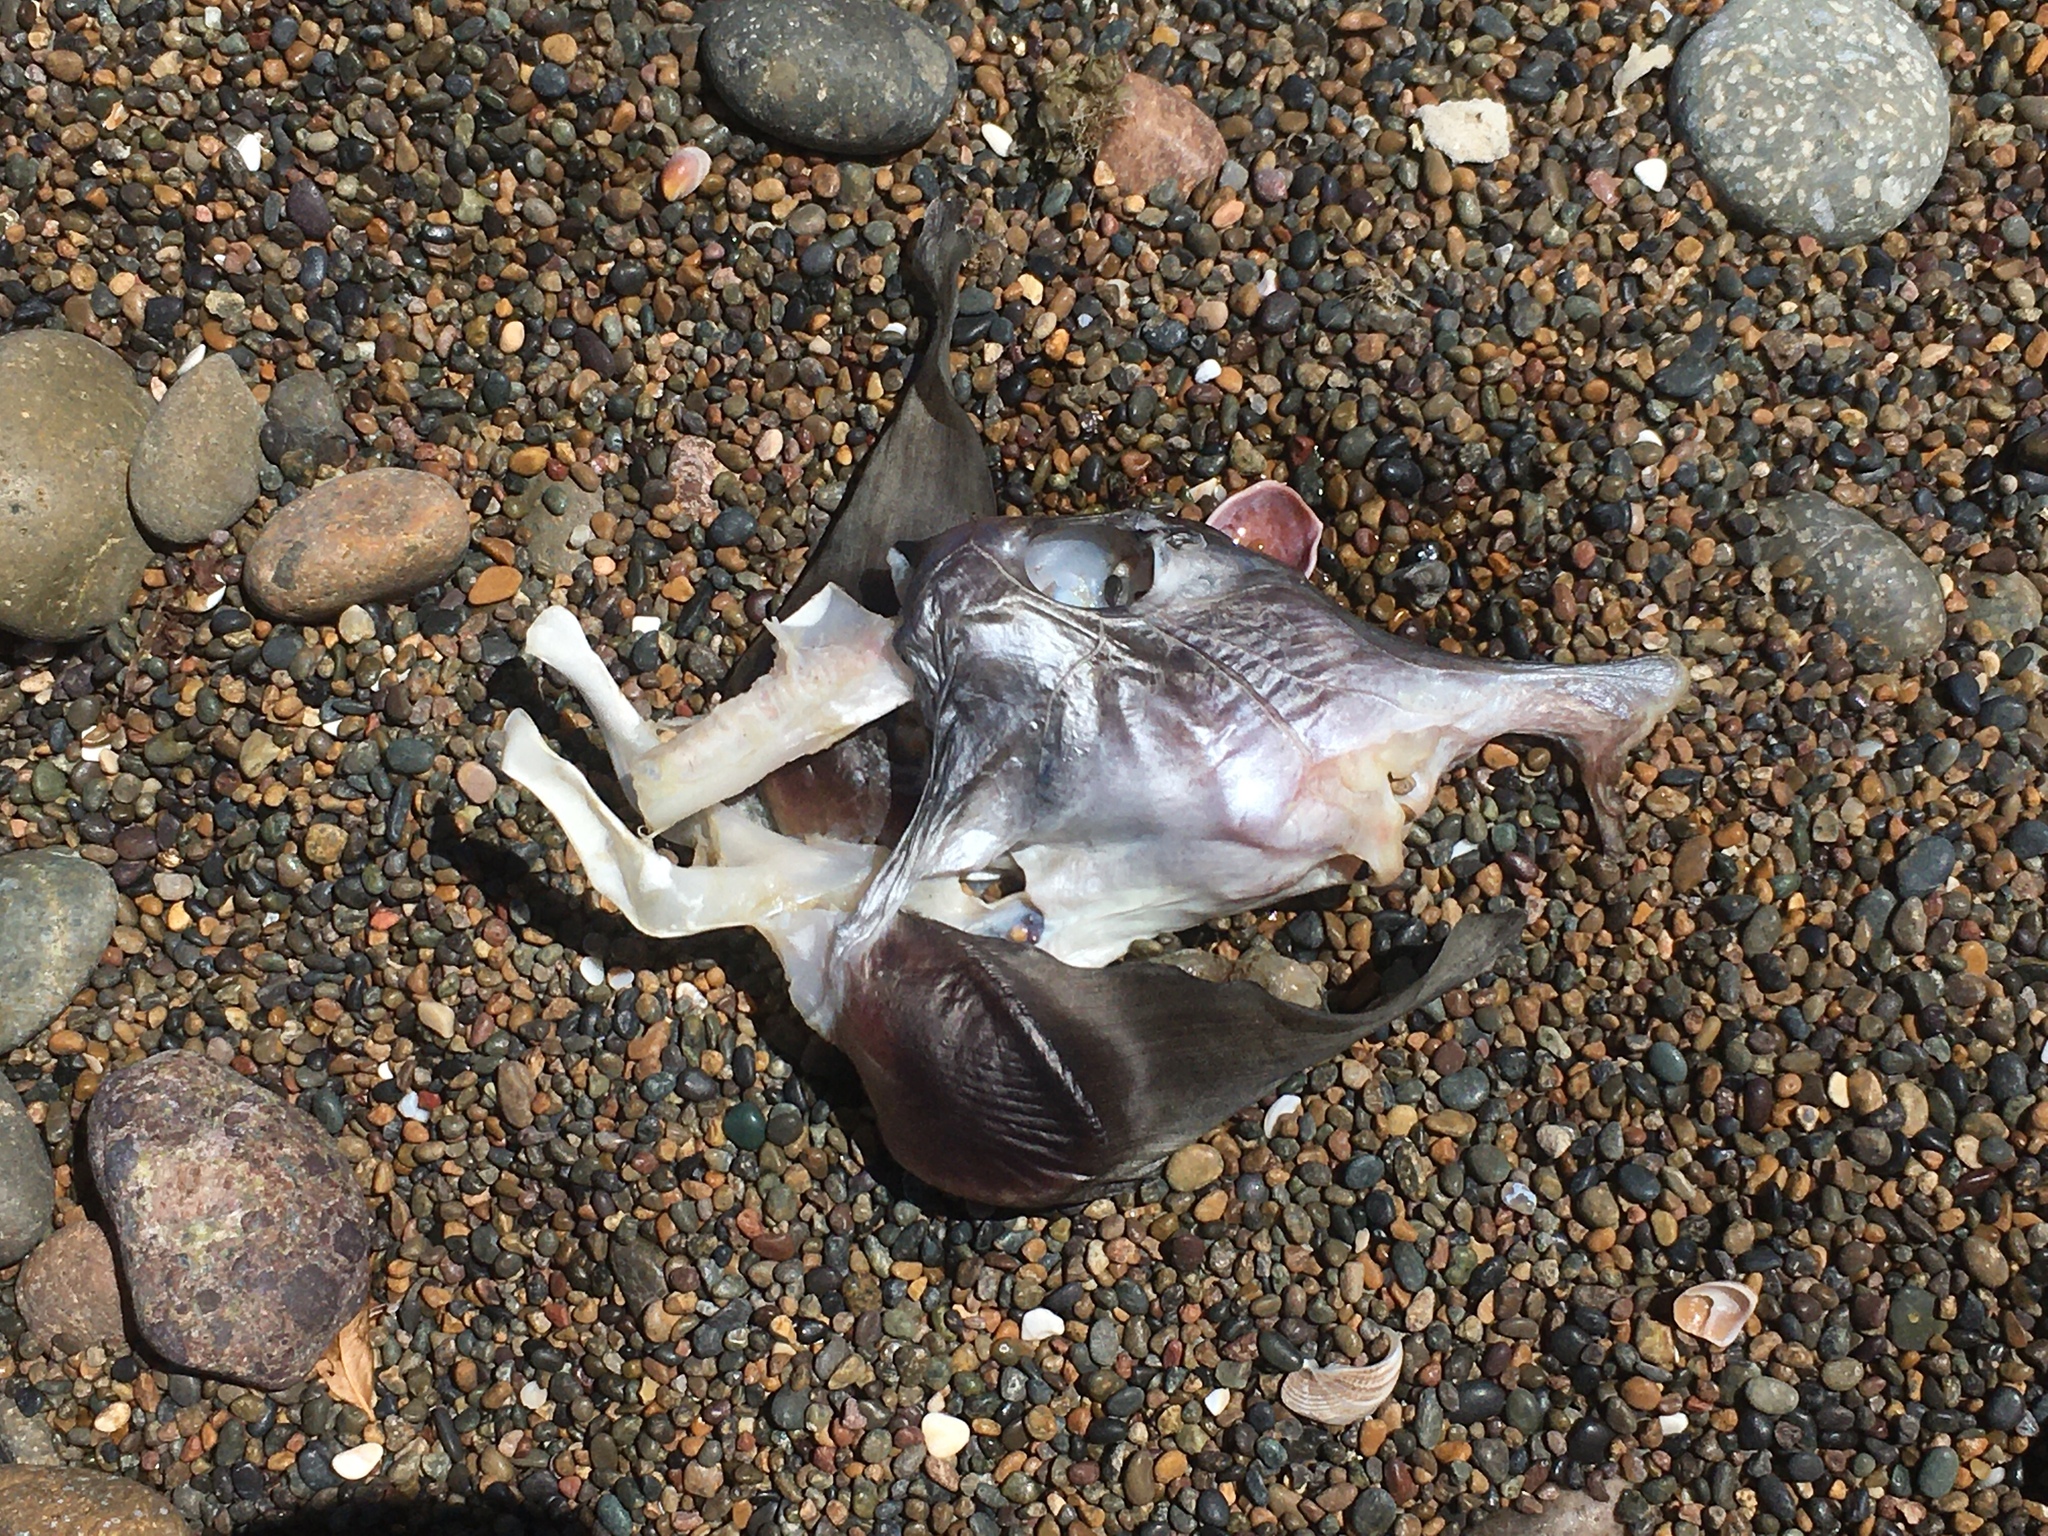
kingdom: Animalia
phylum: Chordata
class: Holocephali
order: Chimaeriformes
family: Callorhinchidae
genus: Callorhinchus
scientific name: Callorhinchus callorynchus
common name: Elephant fish
